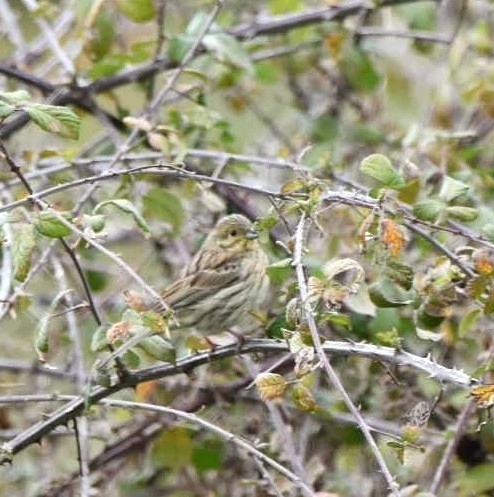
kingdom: Animalia
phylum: Chordata
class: Aves
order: Passeriformes
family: Emberizidae
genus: Emberiza
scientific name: Emberiza cirlus
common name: Cirl bunting
